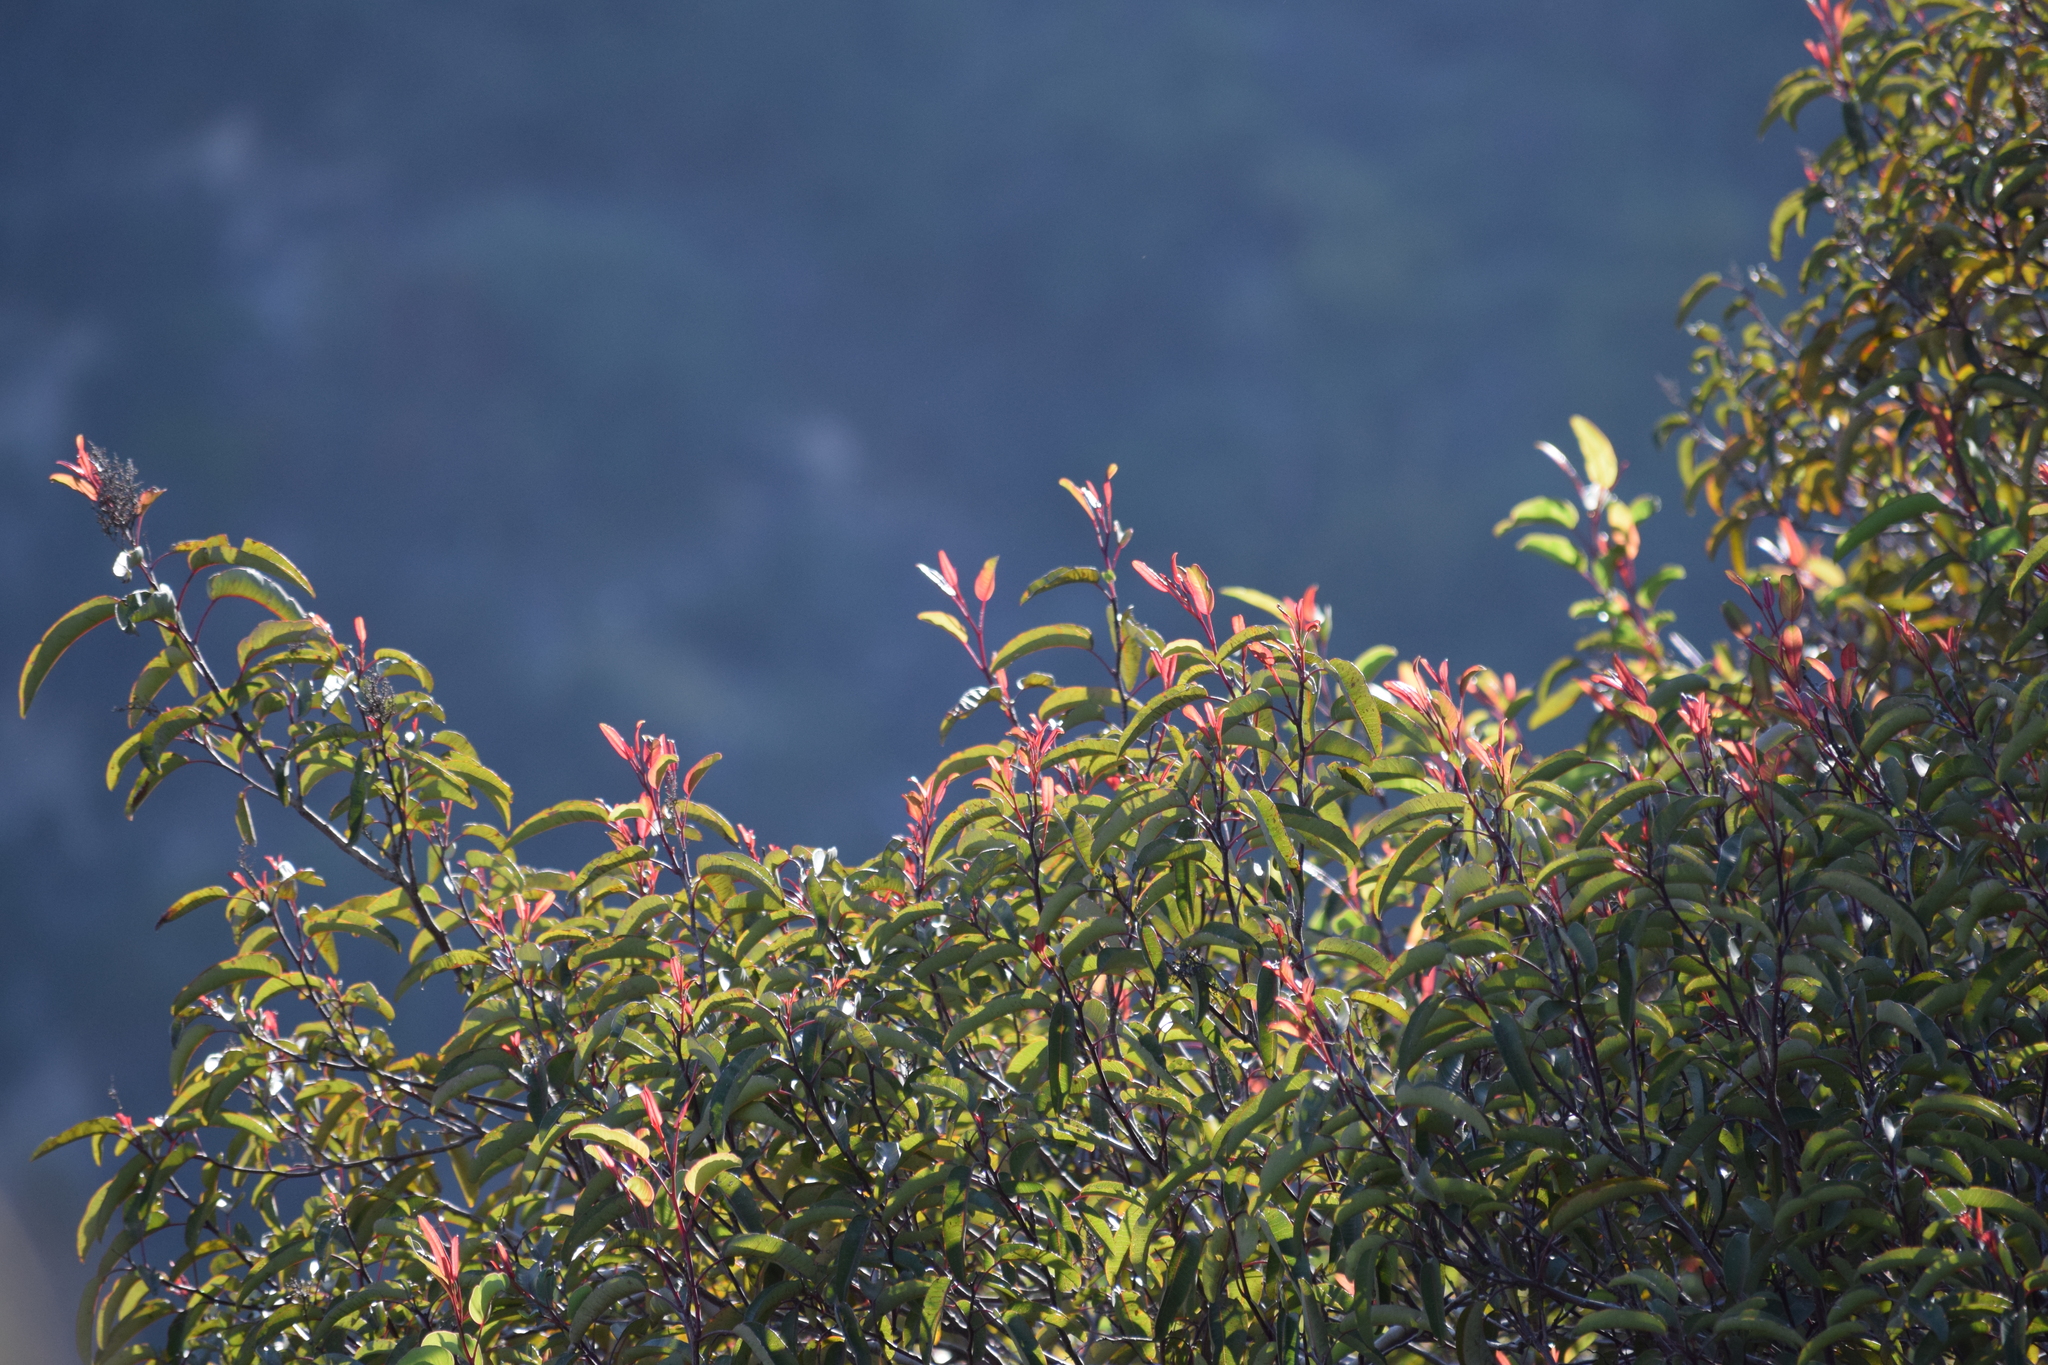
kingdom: Plantae
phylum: Tracheophyta
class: Magnoliopsida
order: Sapindales
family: Anacardiaceae
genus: Malosma
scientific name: Malosma laurina
